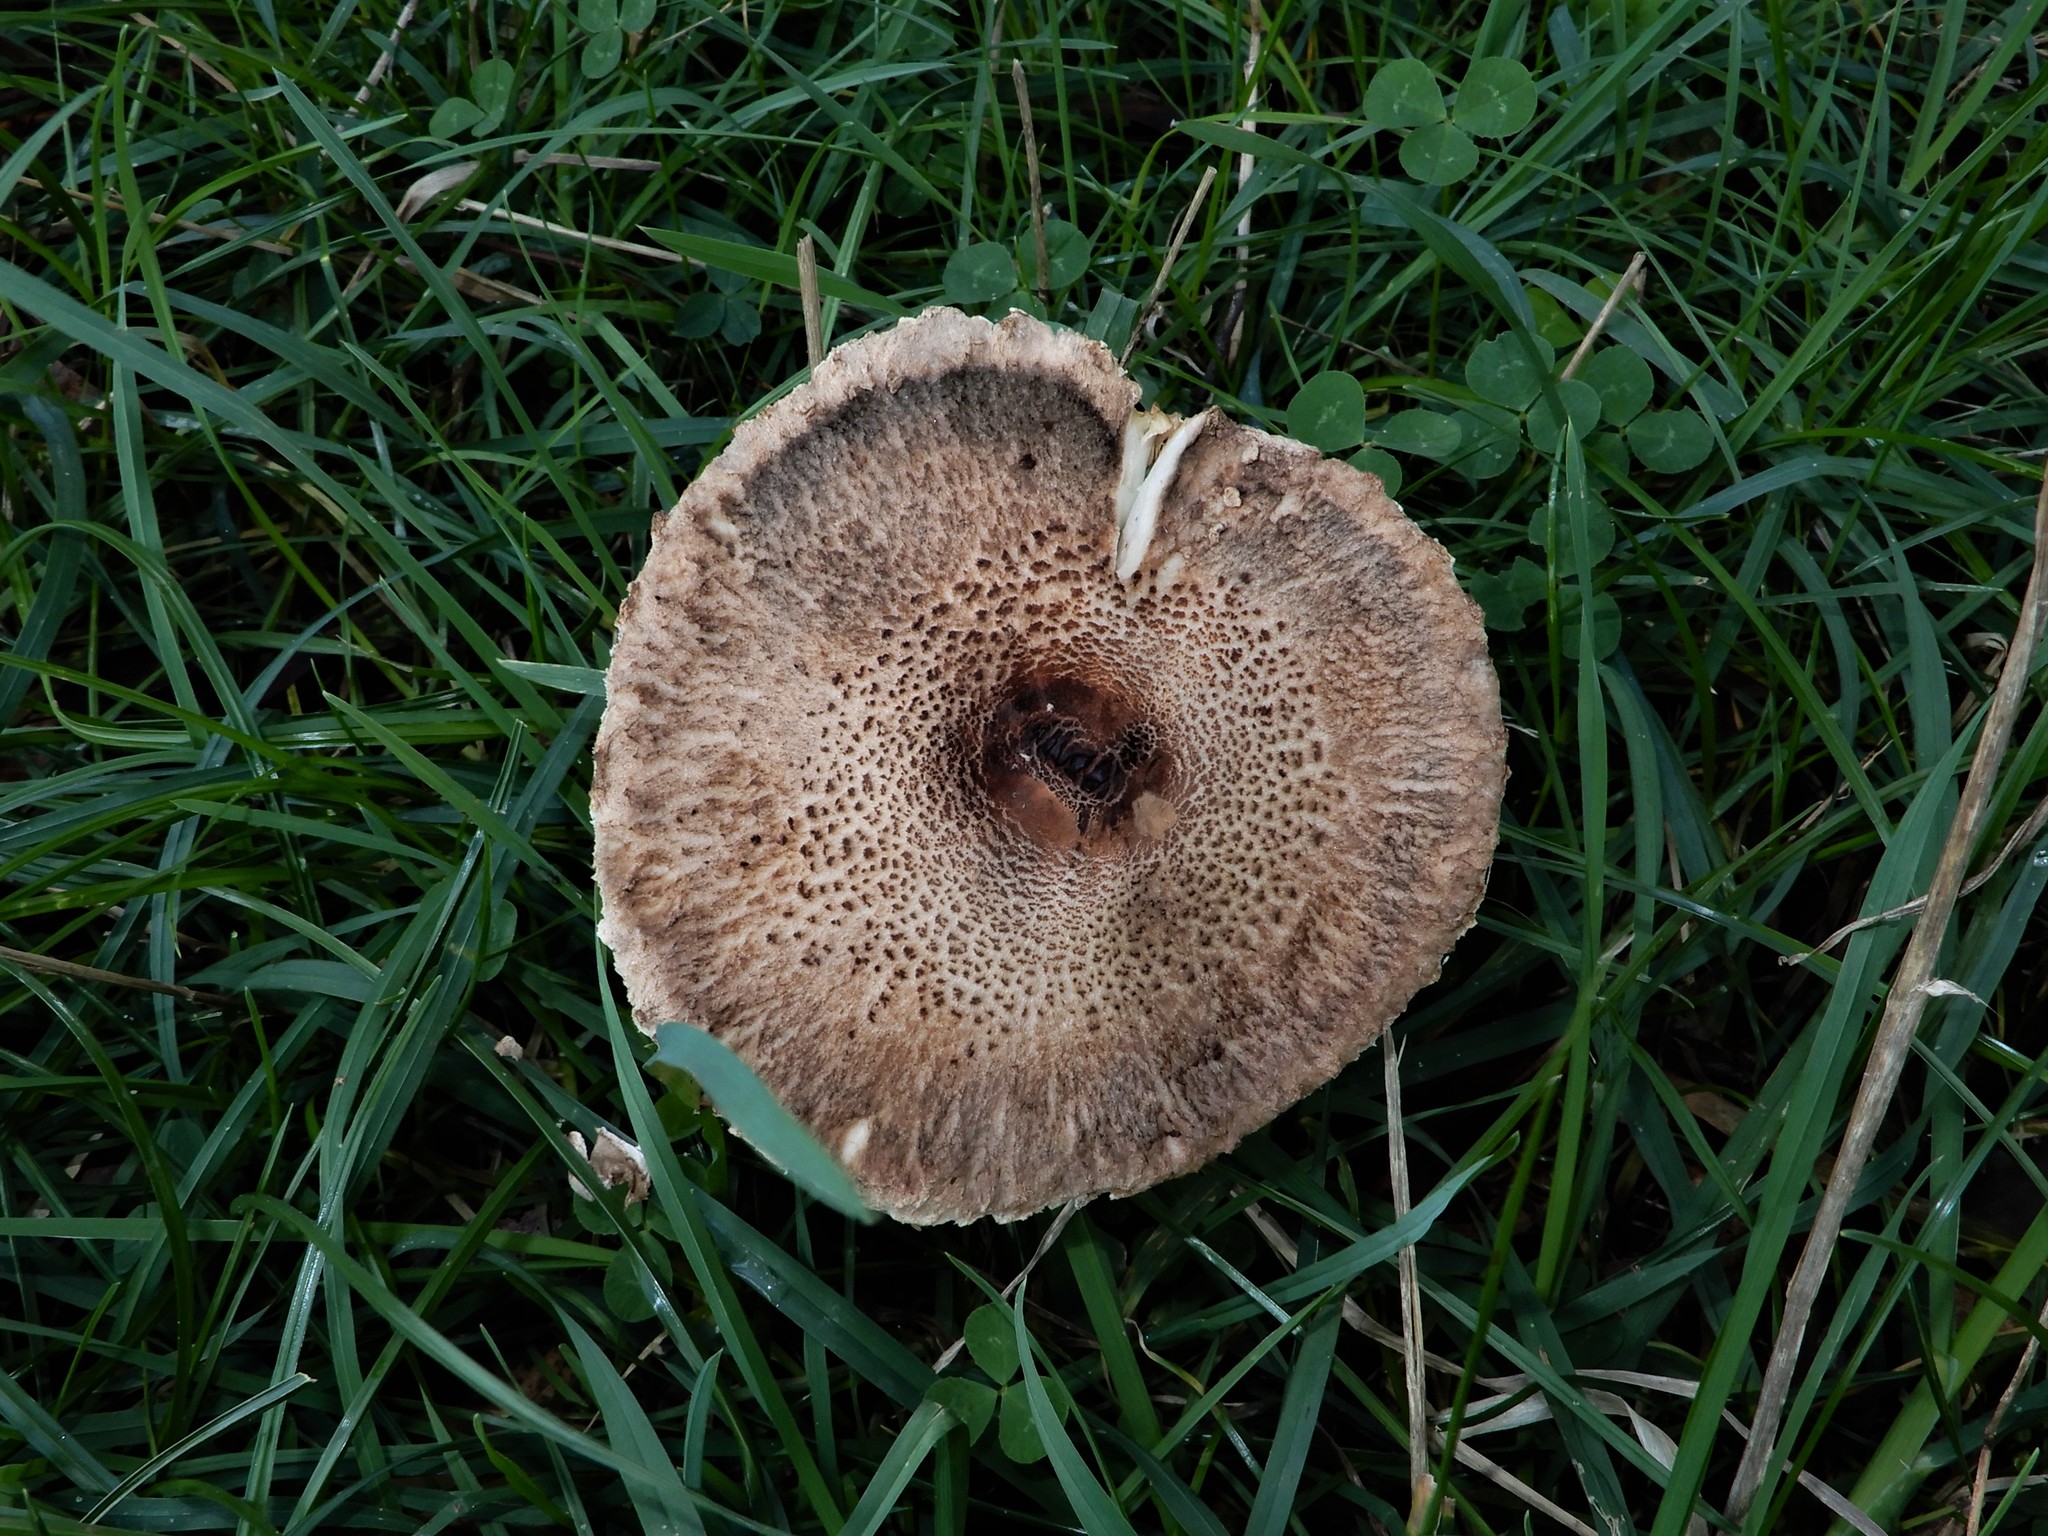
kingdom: Fungi
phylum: Basidiomycota
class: Agaricomycetes
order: Agaricales
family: Agaricaceae
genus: Macrolepiota
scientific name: Macrolepiota clelandii
